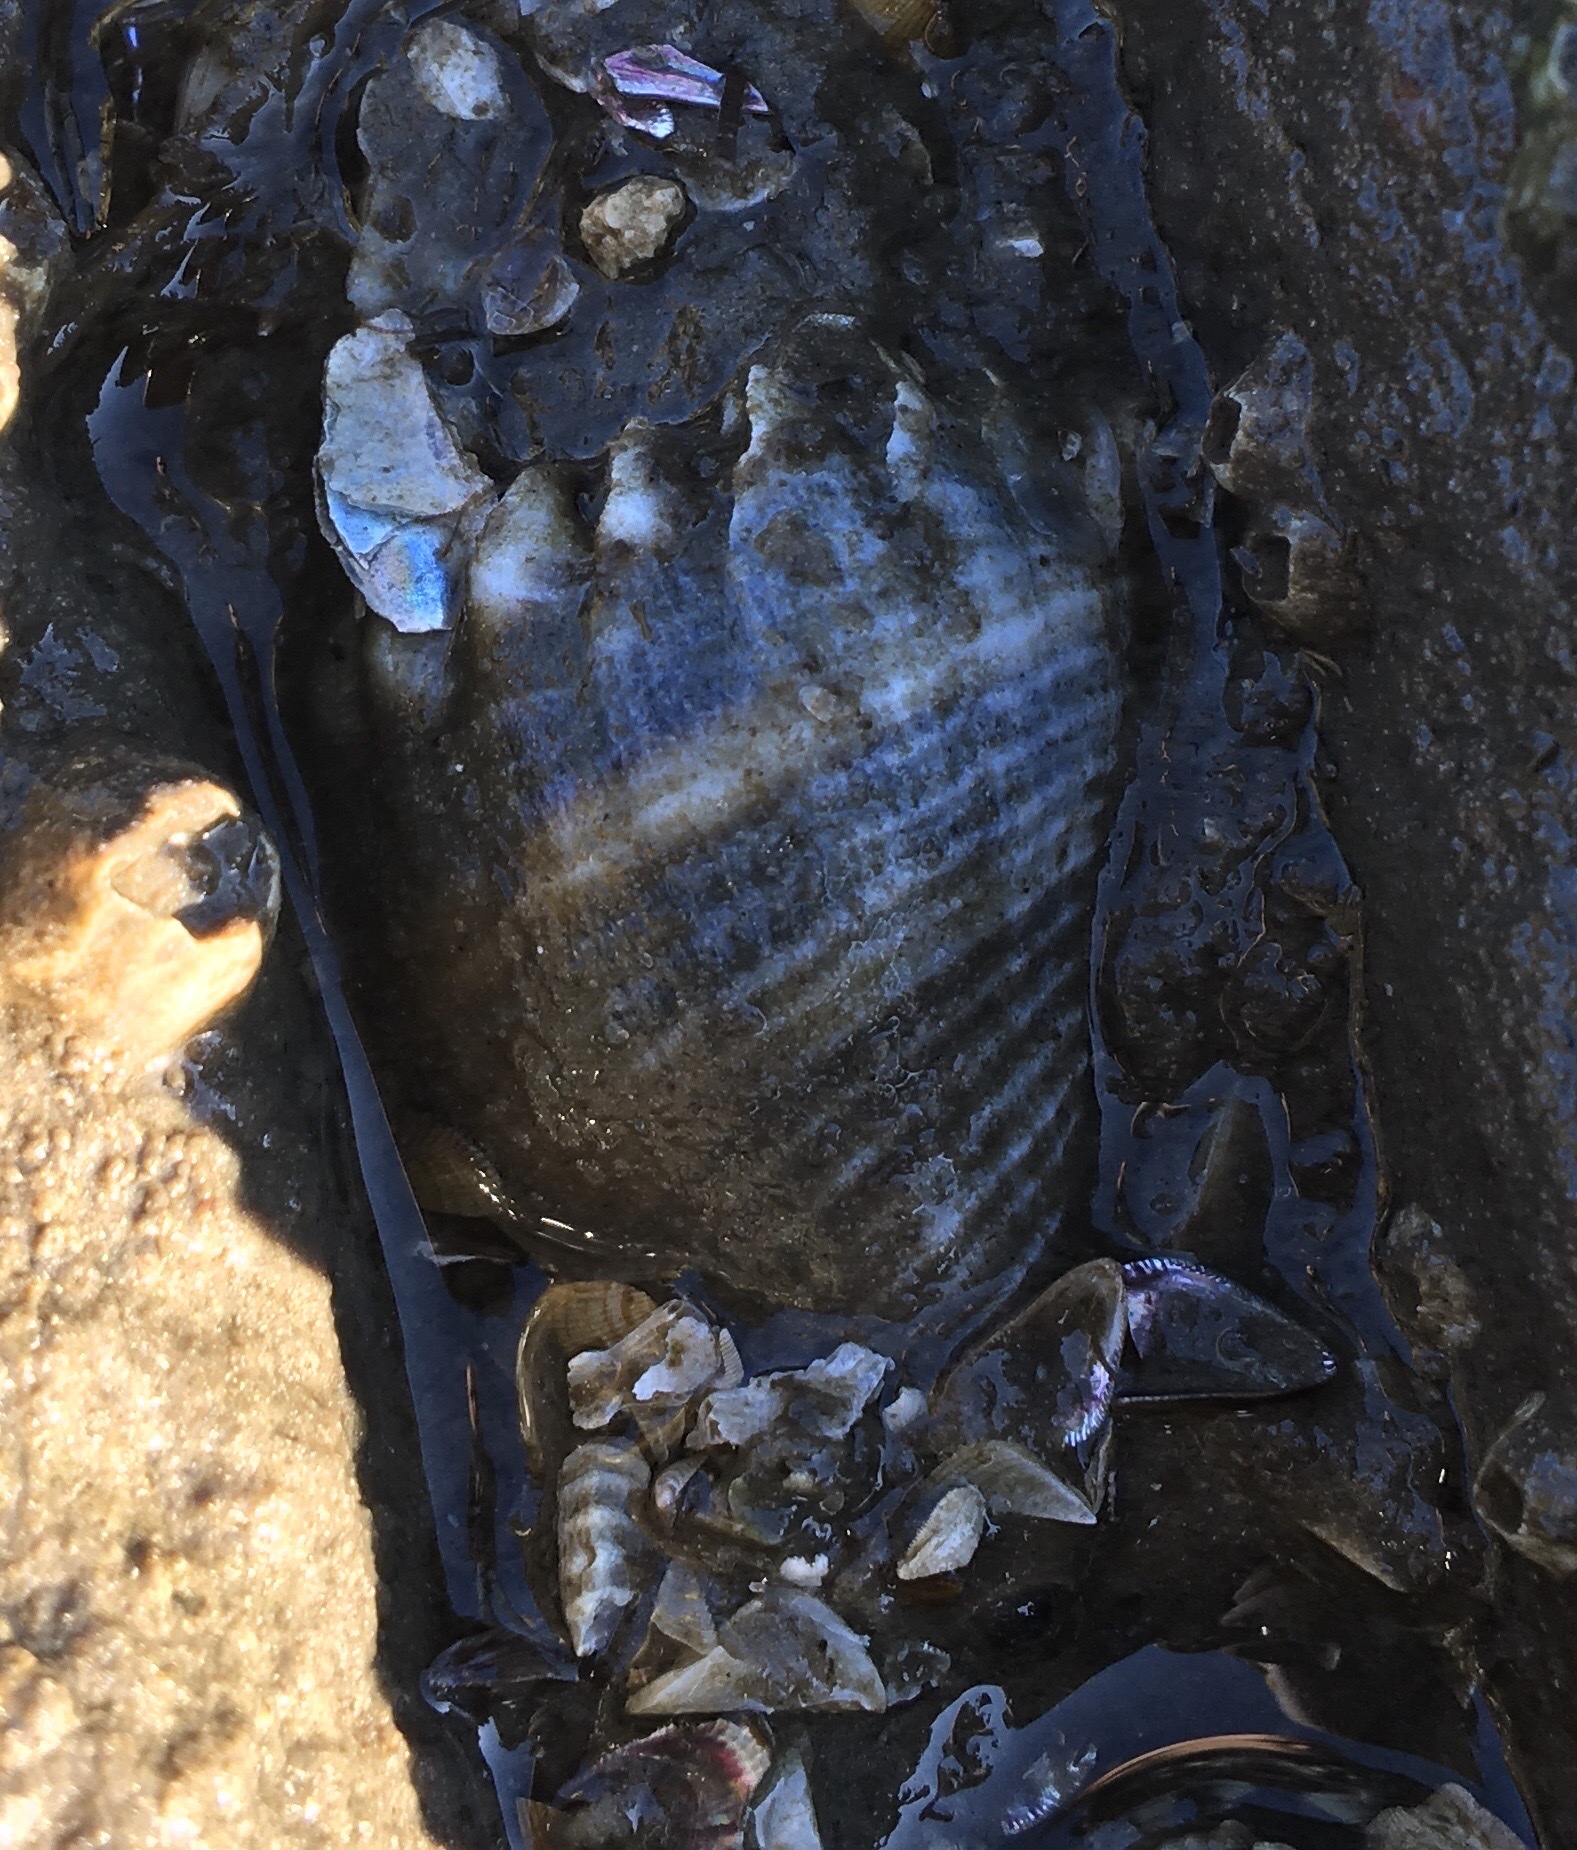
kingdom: Animalia
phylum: Mollusca
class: Gastropoda
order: Neogastropoda
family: Melongenidae
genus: Melongena
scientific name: Melongena corona
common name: American crown conch
